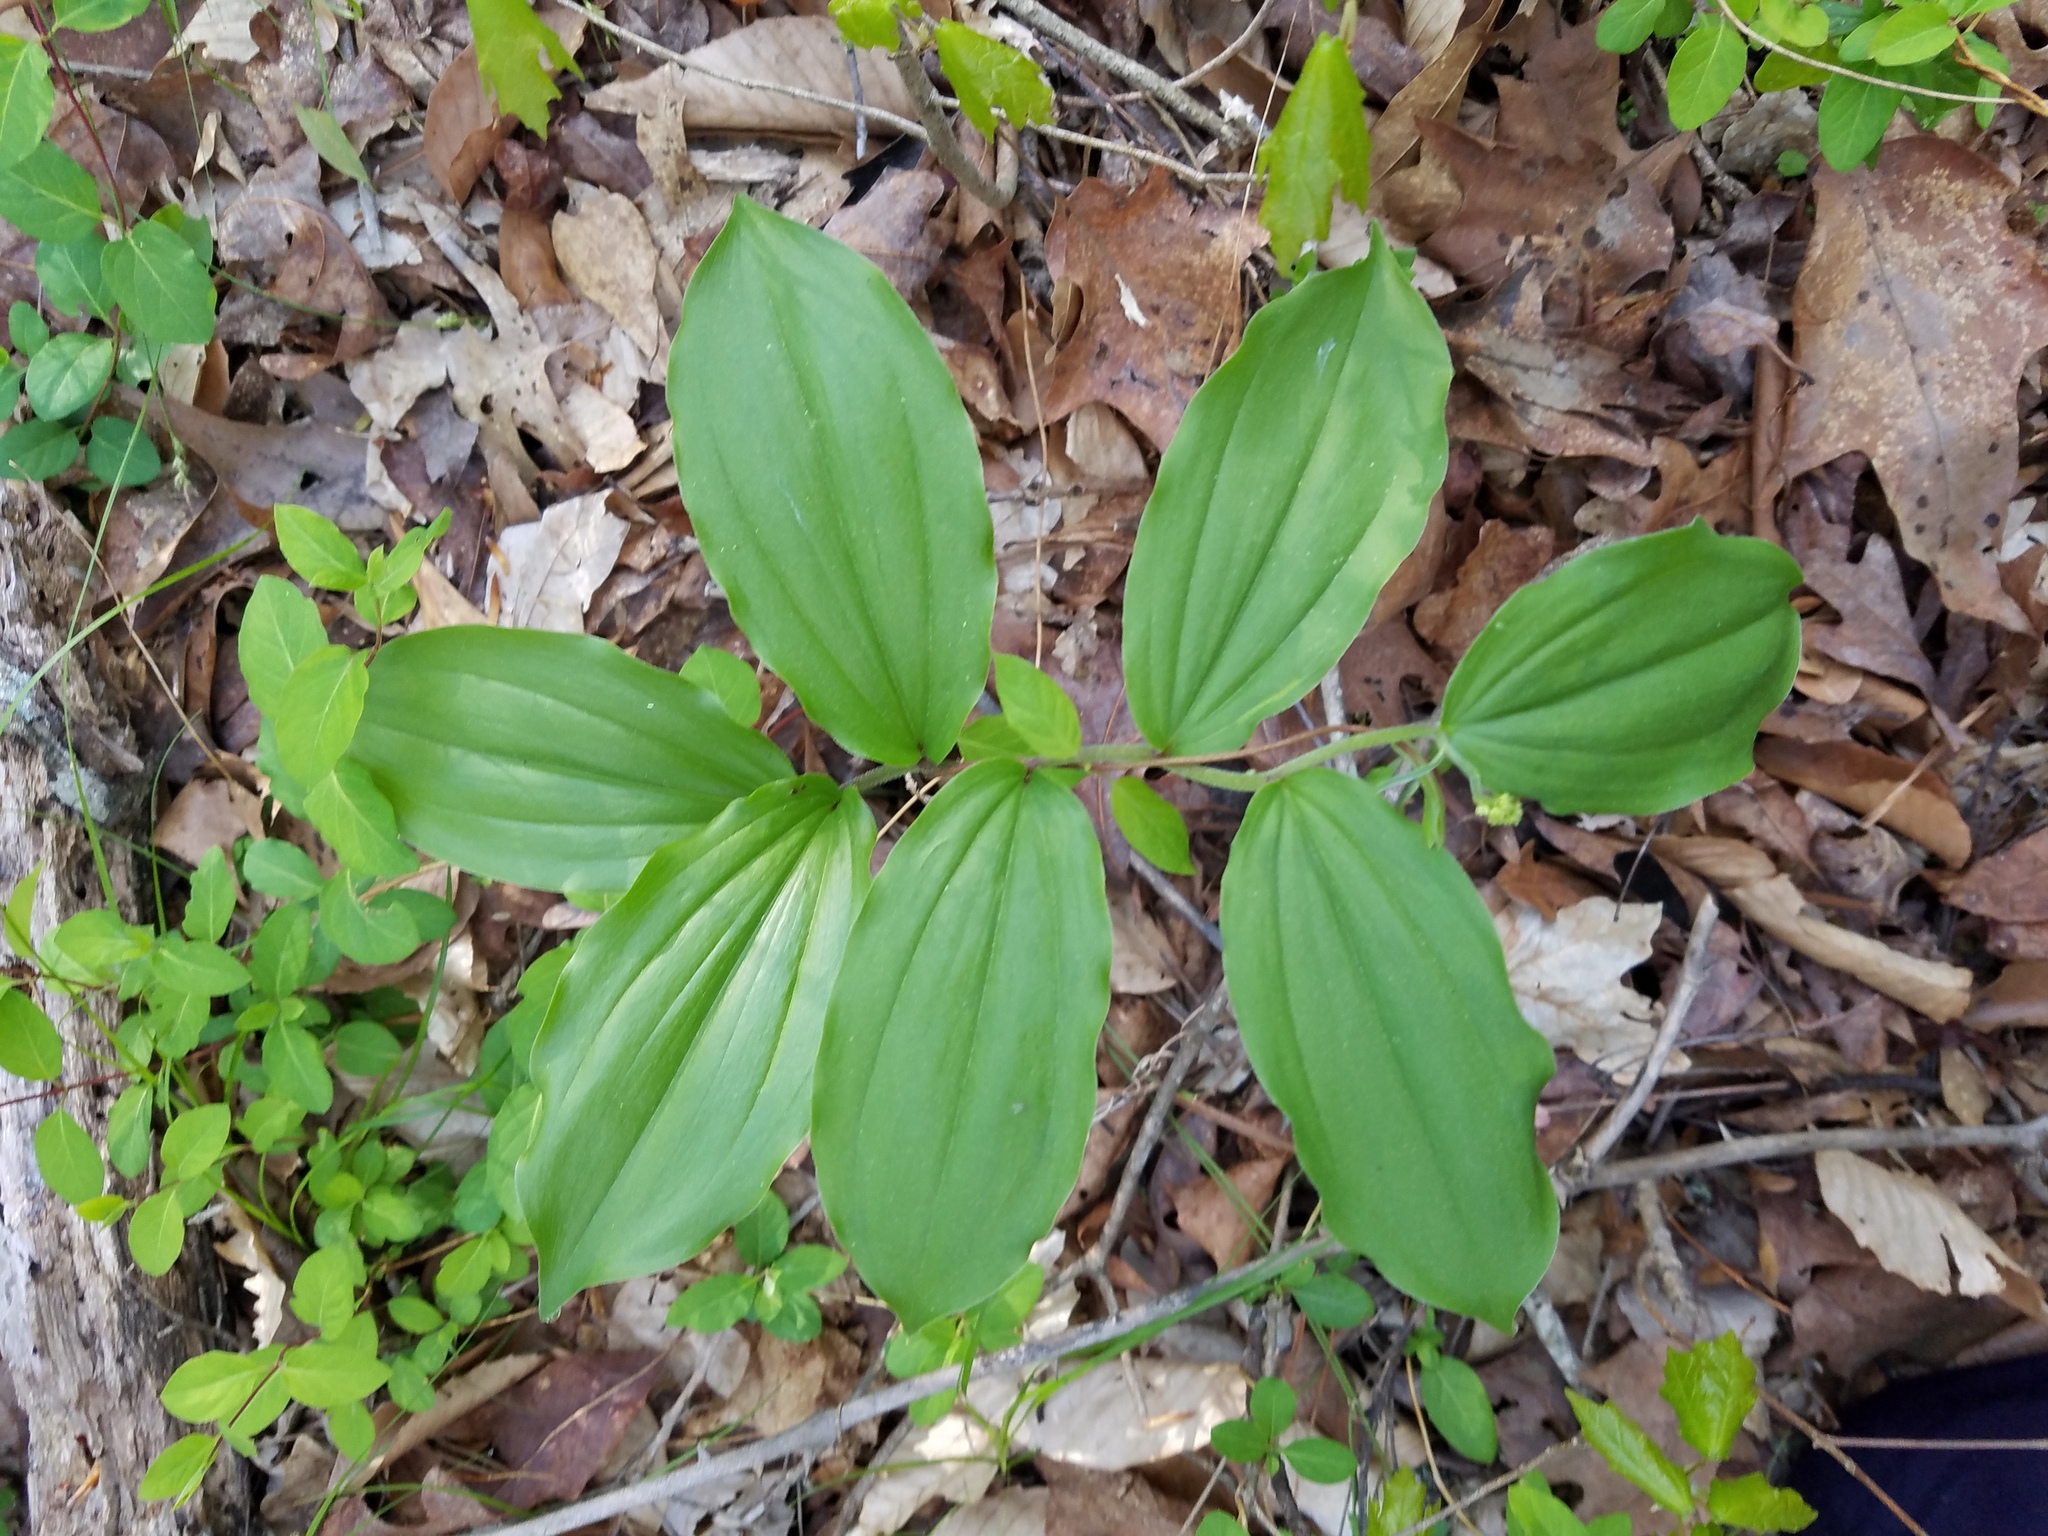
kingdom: Plantae
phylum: Tracheophyta
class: Liliopsida
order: Asparagales
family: Asparagaceae
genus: Maianthemum
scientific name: Maianthemum racemosum
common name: False spikenard
